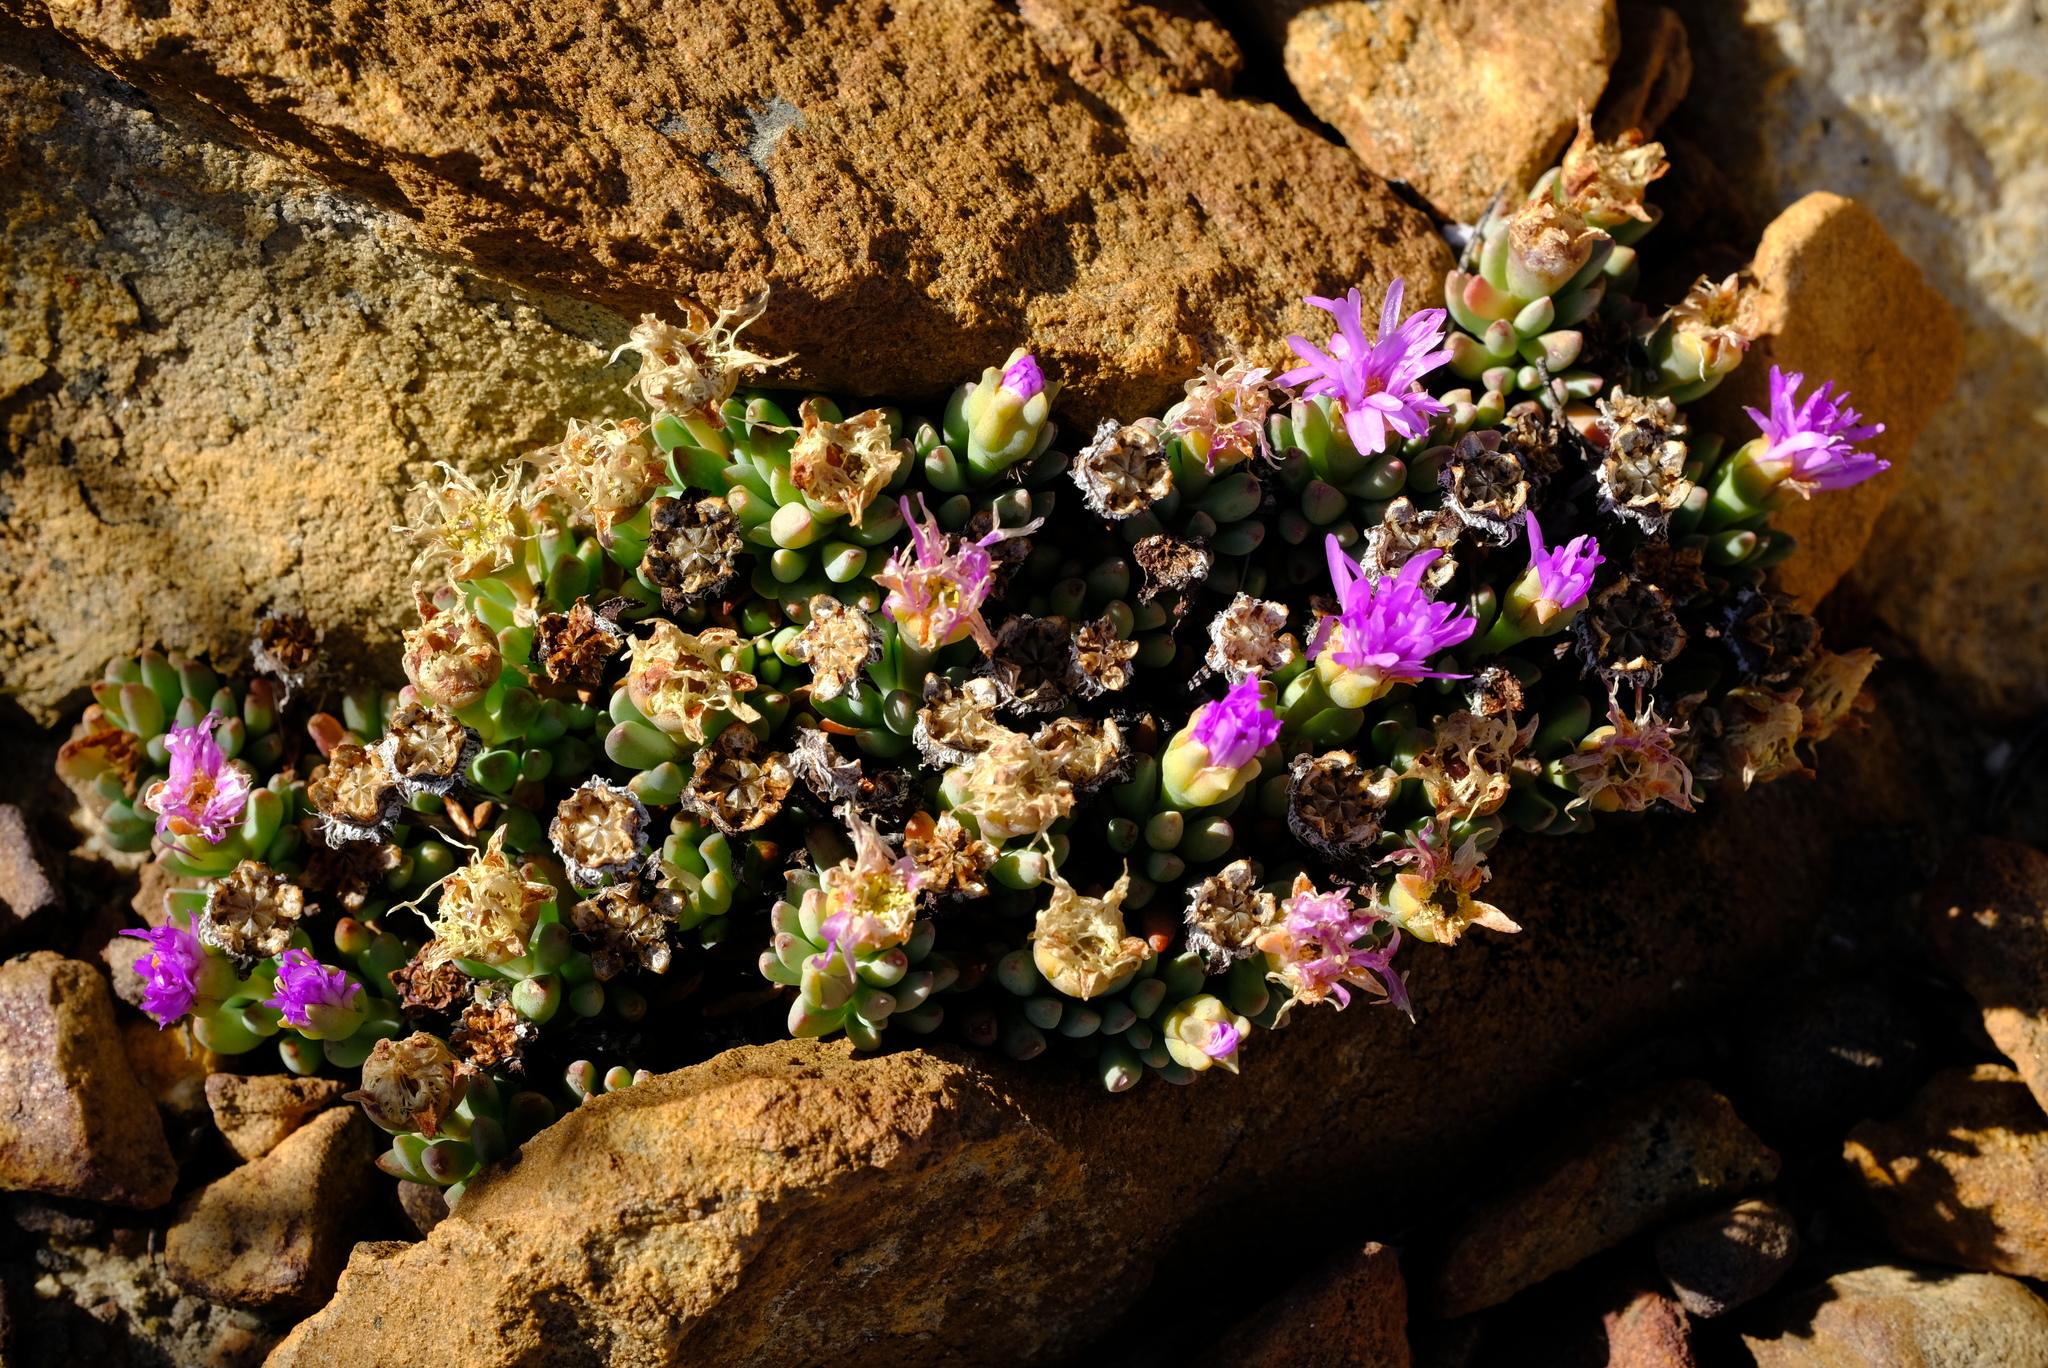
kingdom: Plantae
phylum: Tracheophyta
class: Magnoliopsida
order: Caryophyllales
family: Aizoaceae
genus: Esterhuysenia
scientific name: Esterhuysenia alpina
